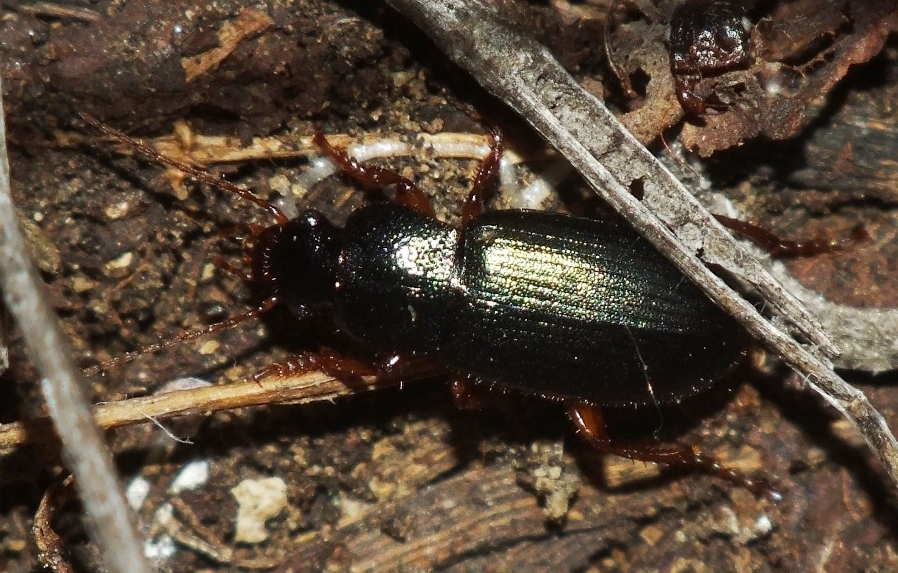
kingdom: Animalia
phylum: Arthropoda
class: Insecta
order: Coleoptera
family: Carabidae
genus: Ophonus
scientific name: Ophonus azureus
